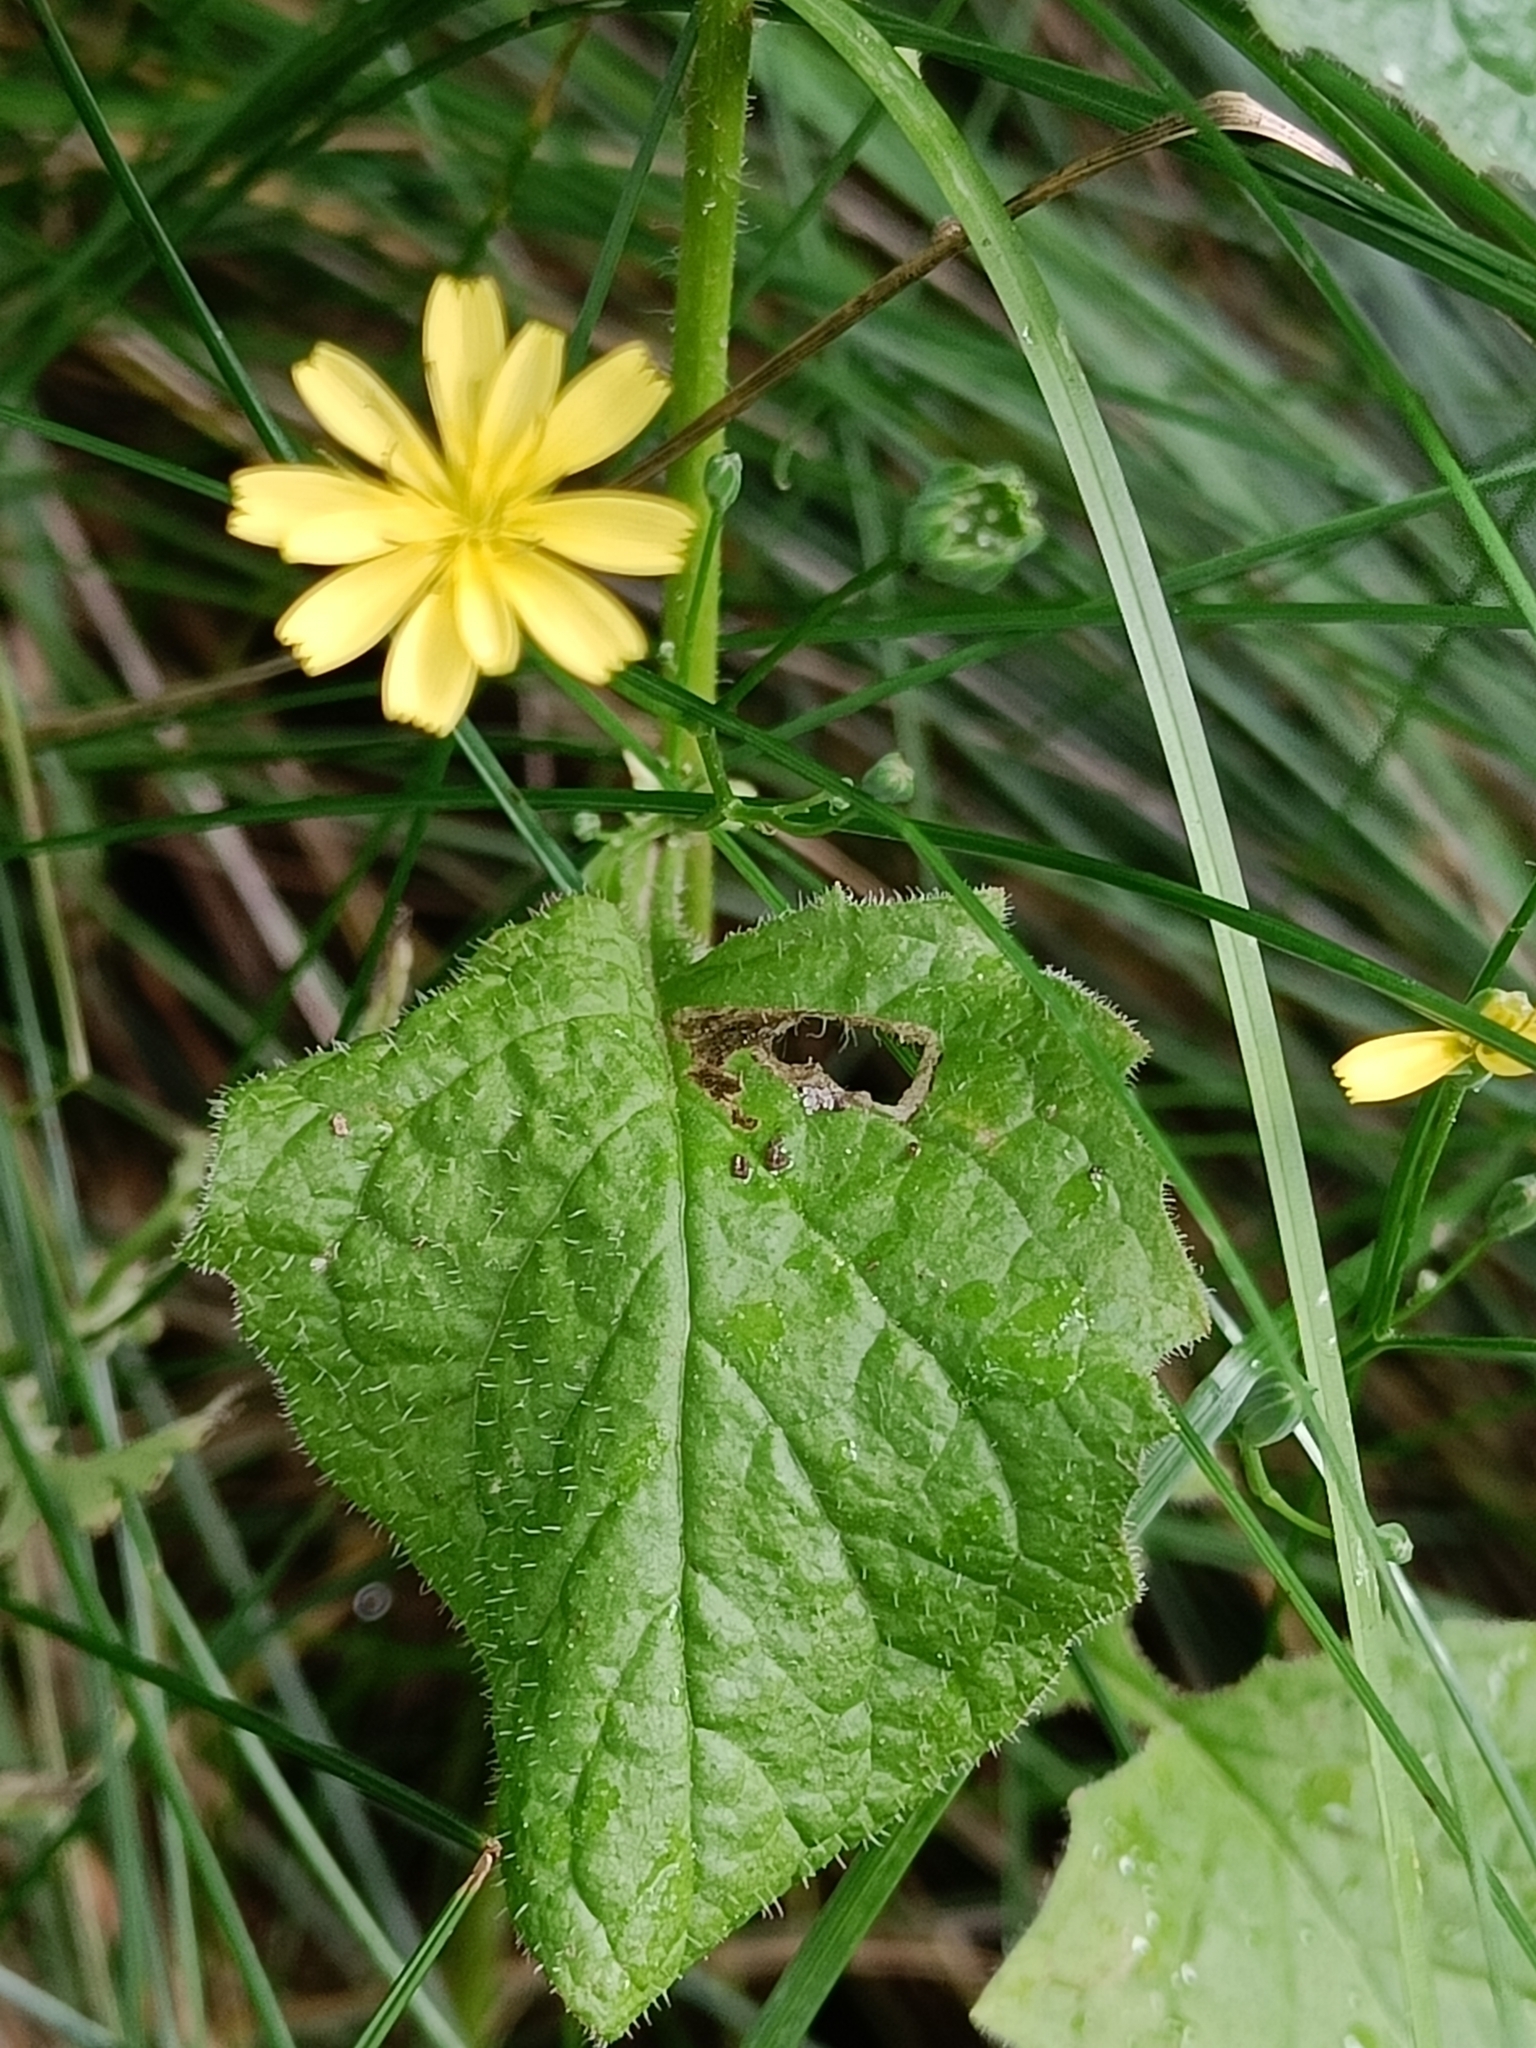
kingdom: Plantae
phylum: Tracheophyta
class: Magnoliopsida
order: Asterales
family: Asteraceae
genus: Lapsana
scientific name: Lapsana communis
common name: Nipplewort
